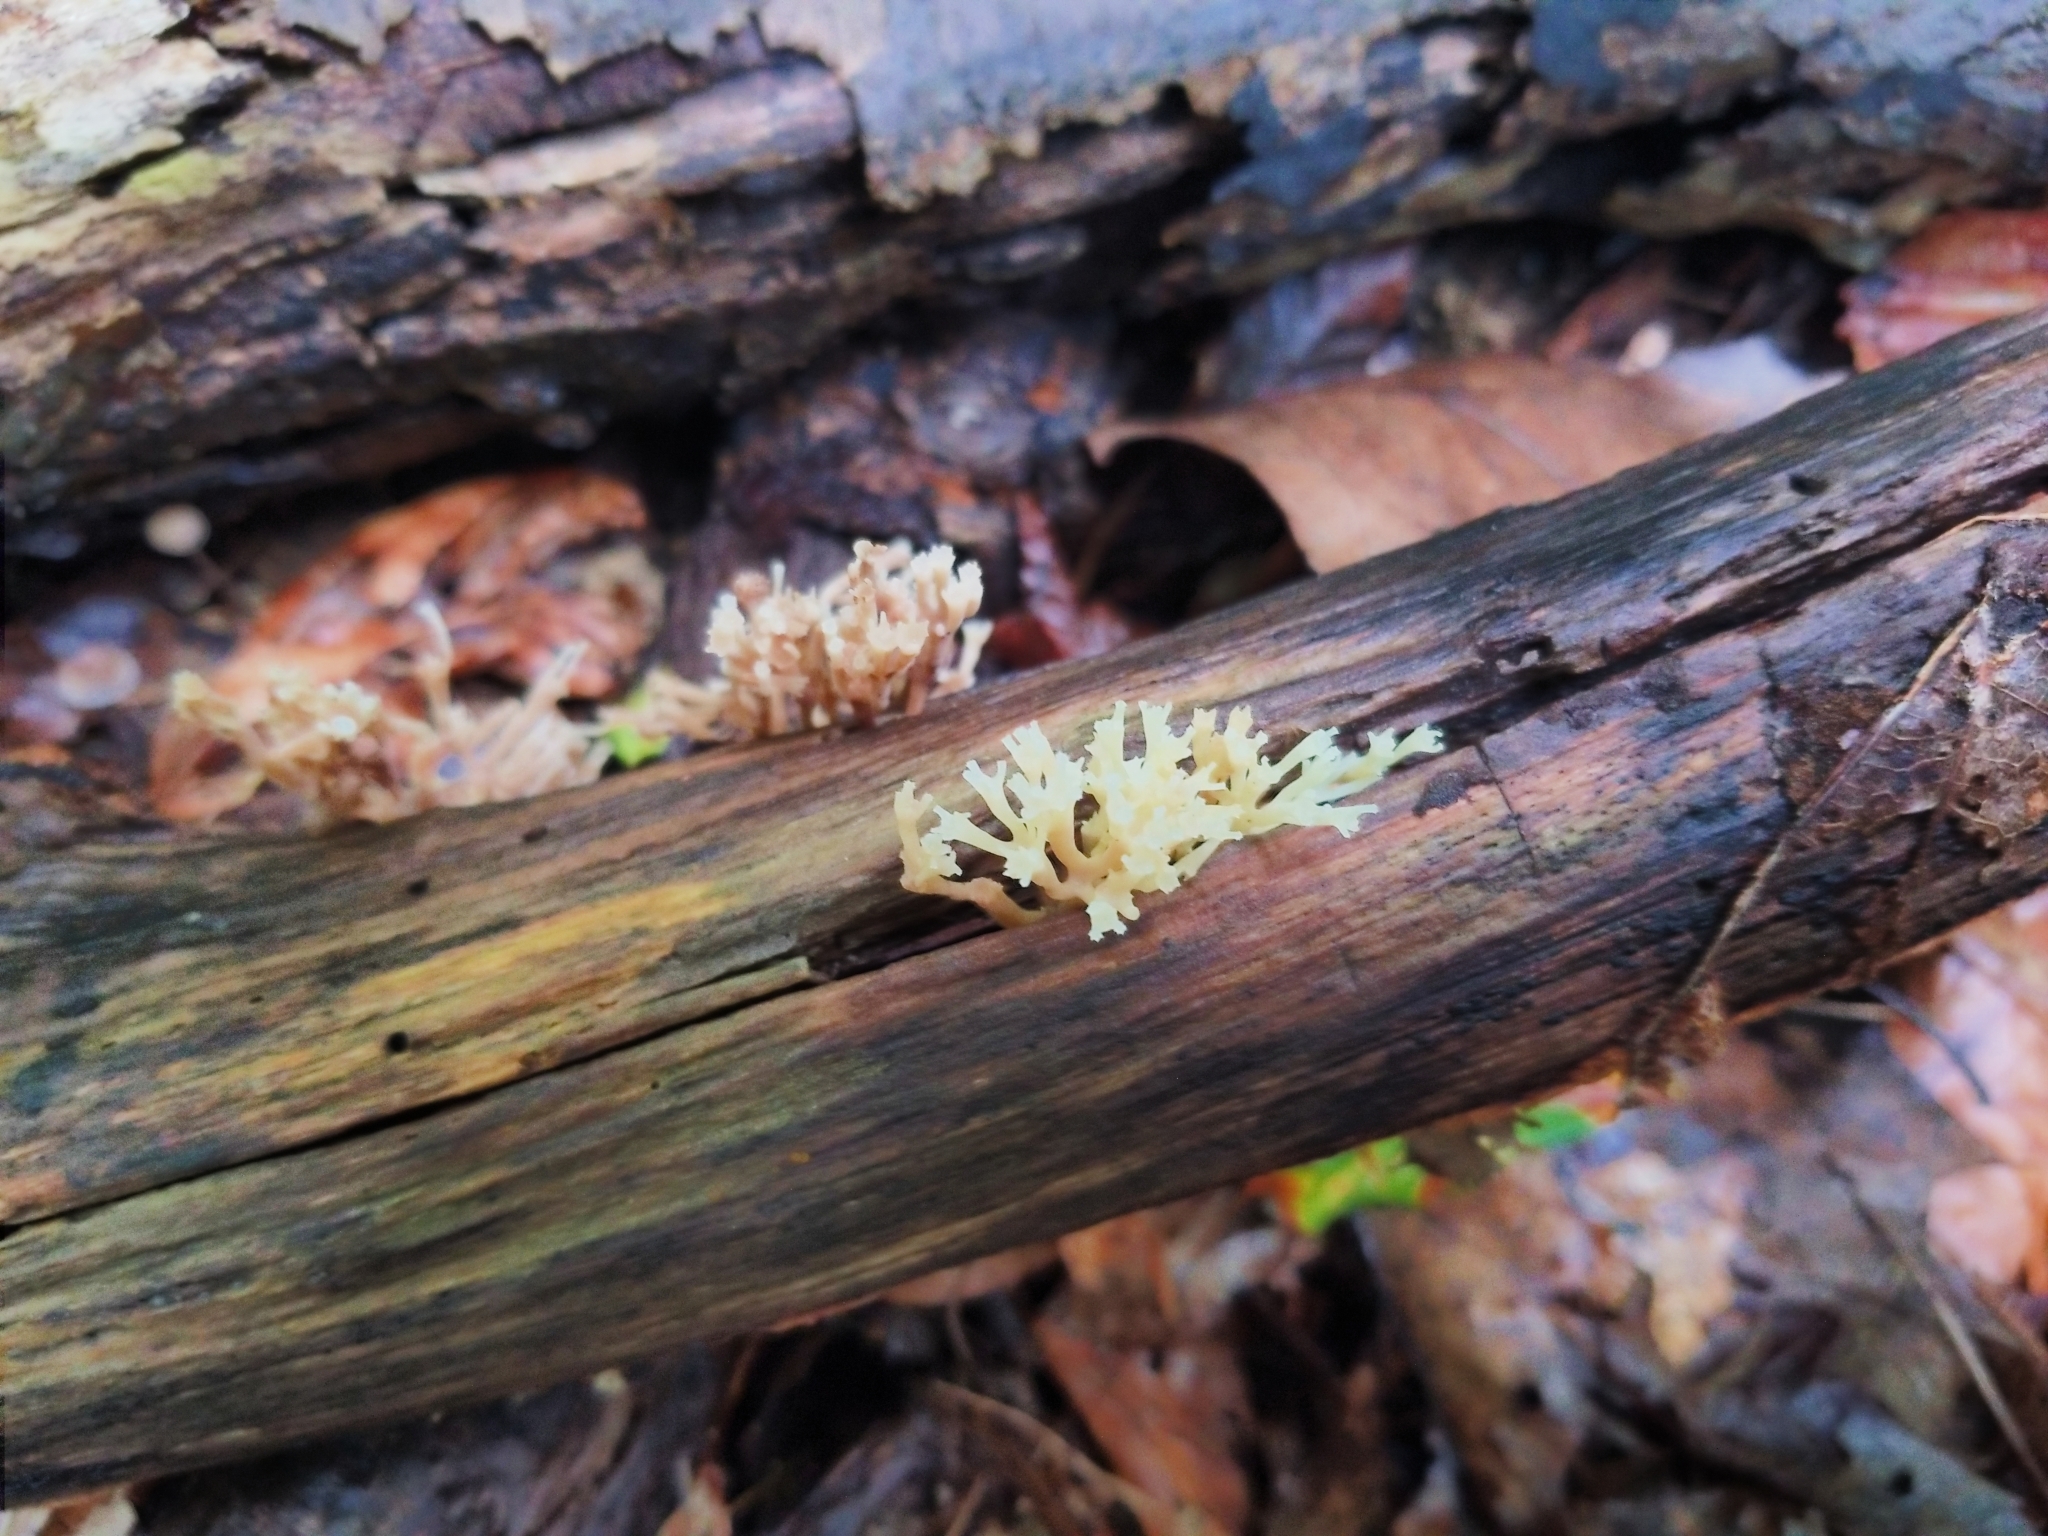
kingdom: Fungi
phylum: Basidiomycota
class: Agaricomycetes
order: Russulales
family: Auriscalpiaceae
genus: Artomyces
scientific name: Artomyces pyxidatus
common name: Crown-tipped coral fungus
